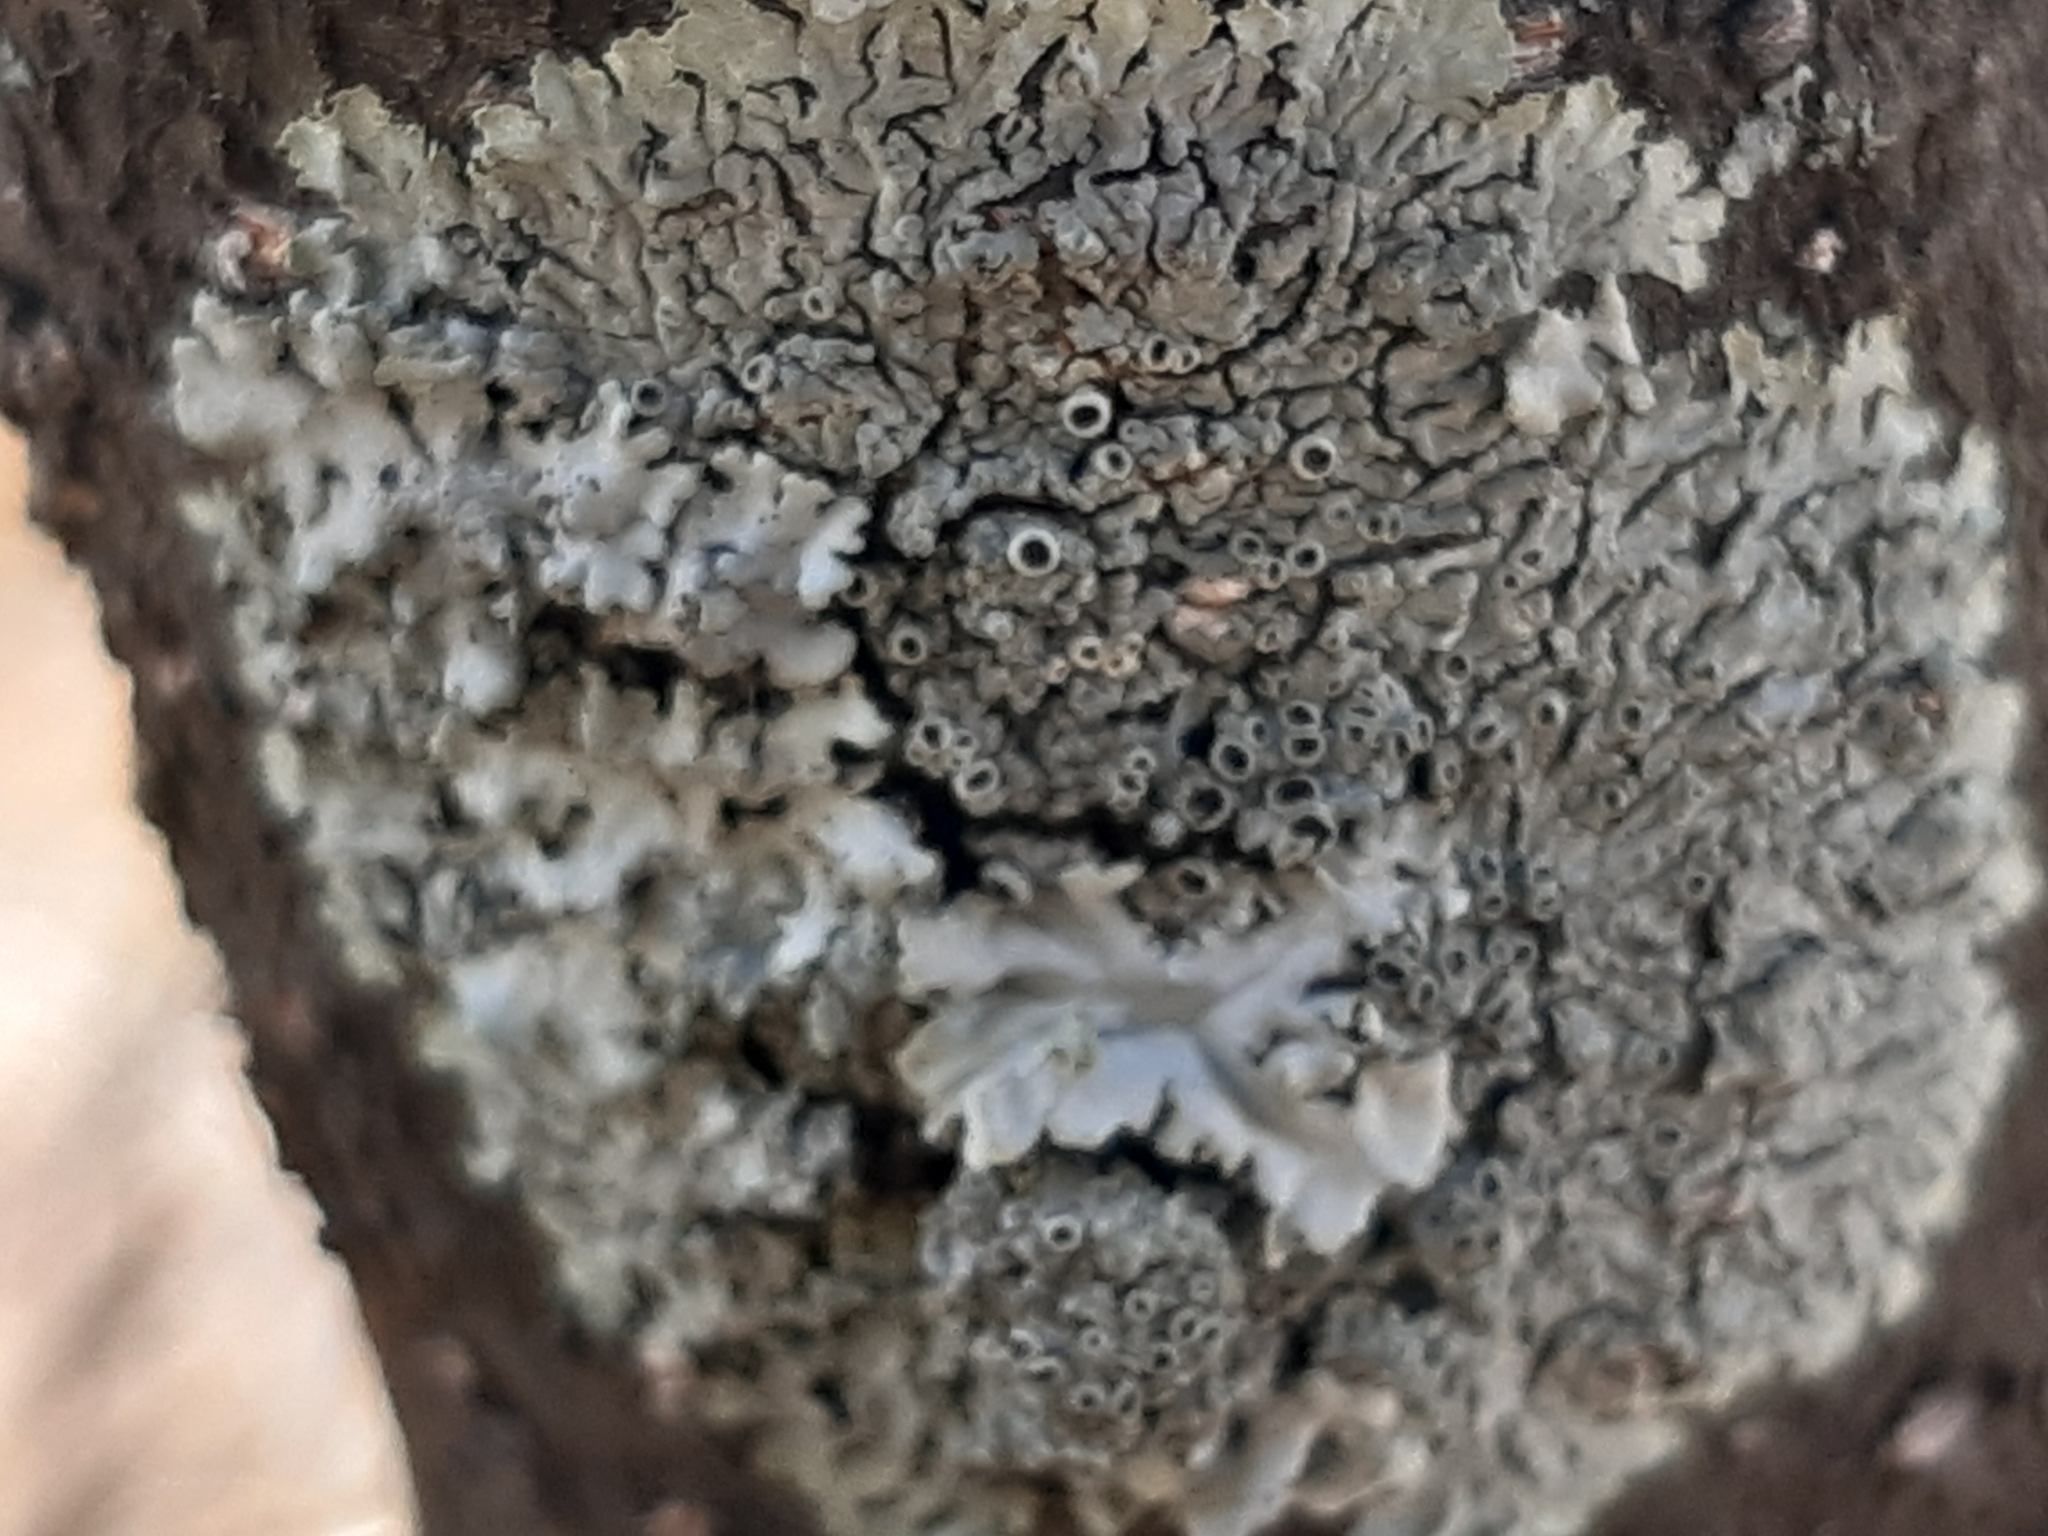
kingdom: Fungi
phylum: Ascomycota
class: Lecanoromycetes
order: Caliciales
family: Physciaceae
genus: Physcia
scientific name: Physcia aipolia
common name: Hoary rosette lichen
